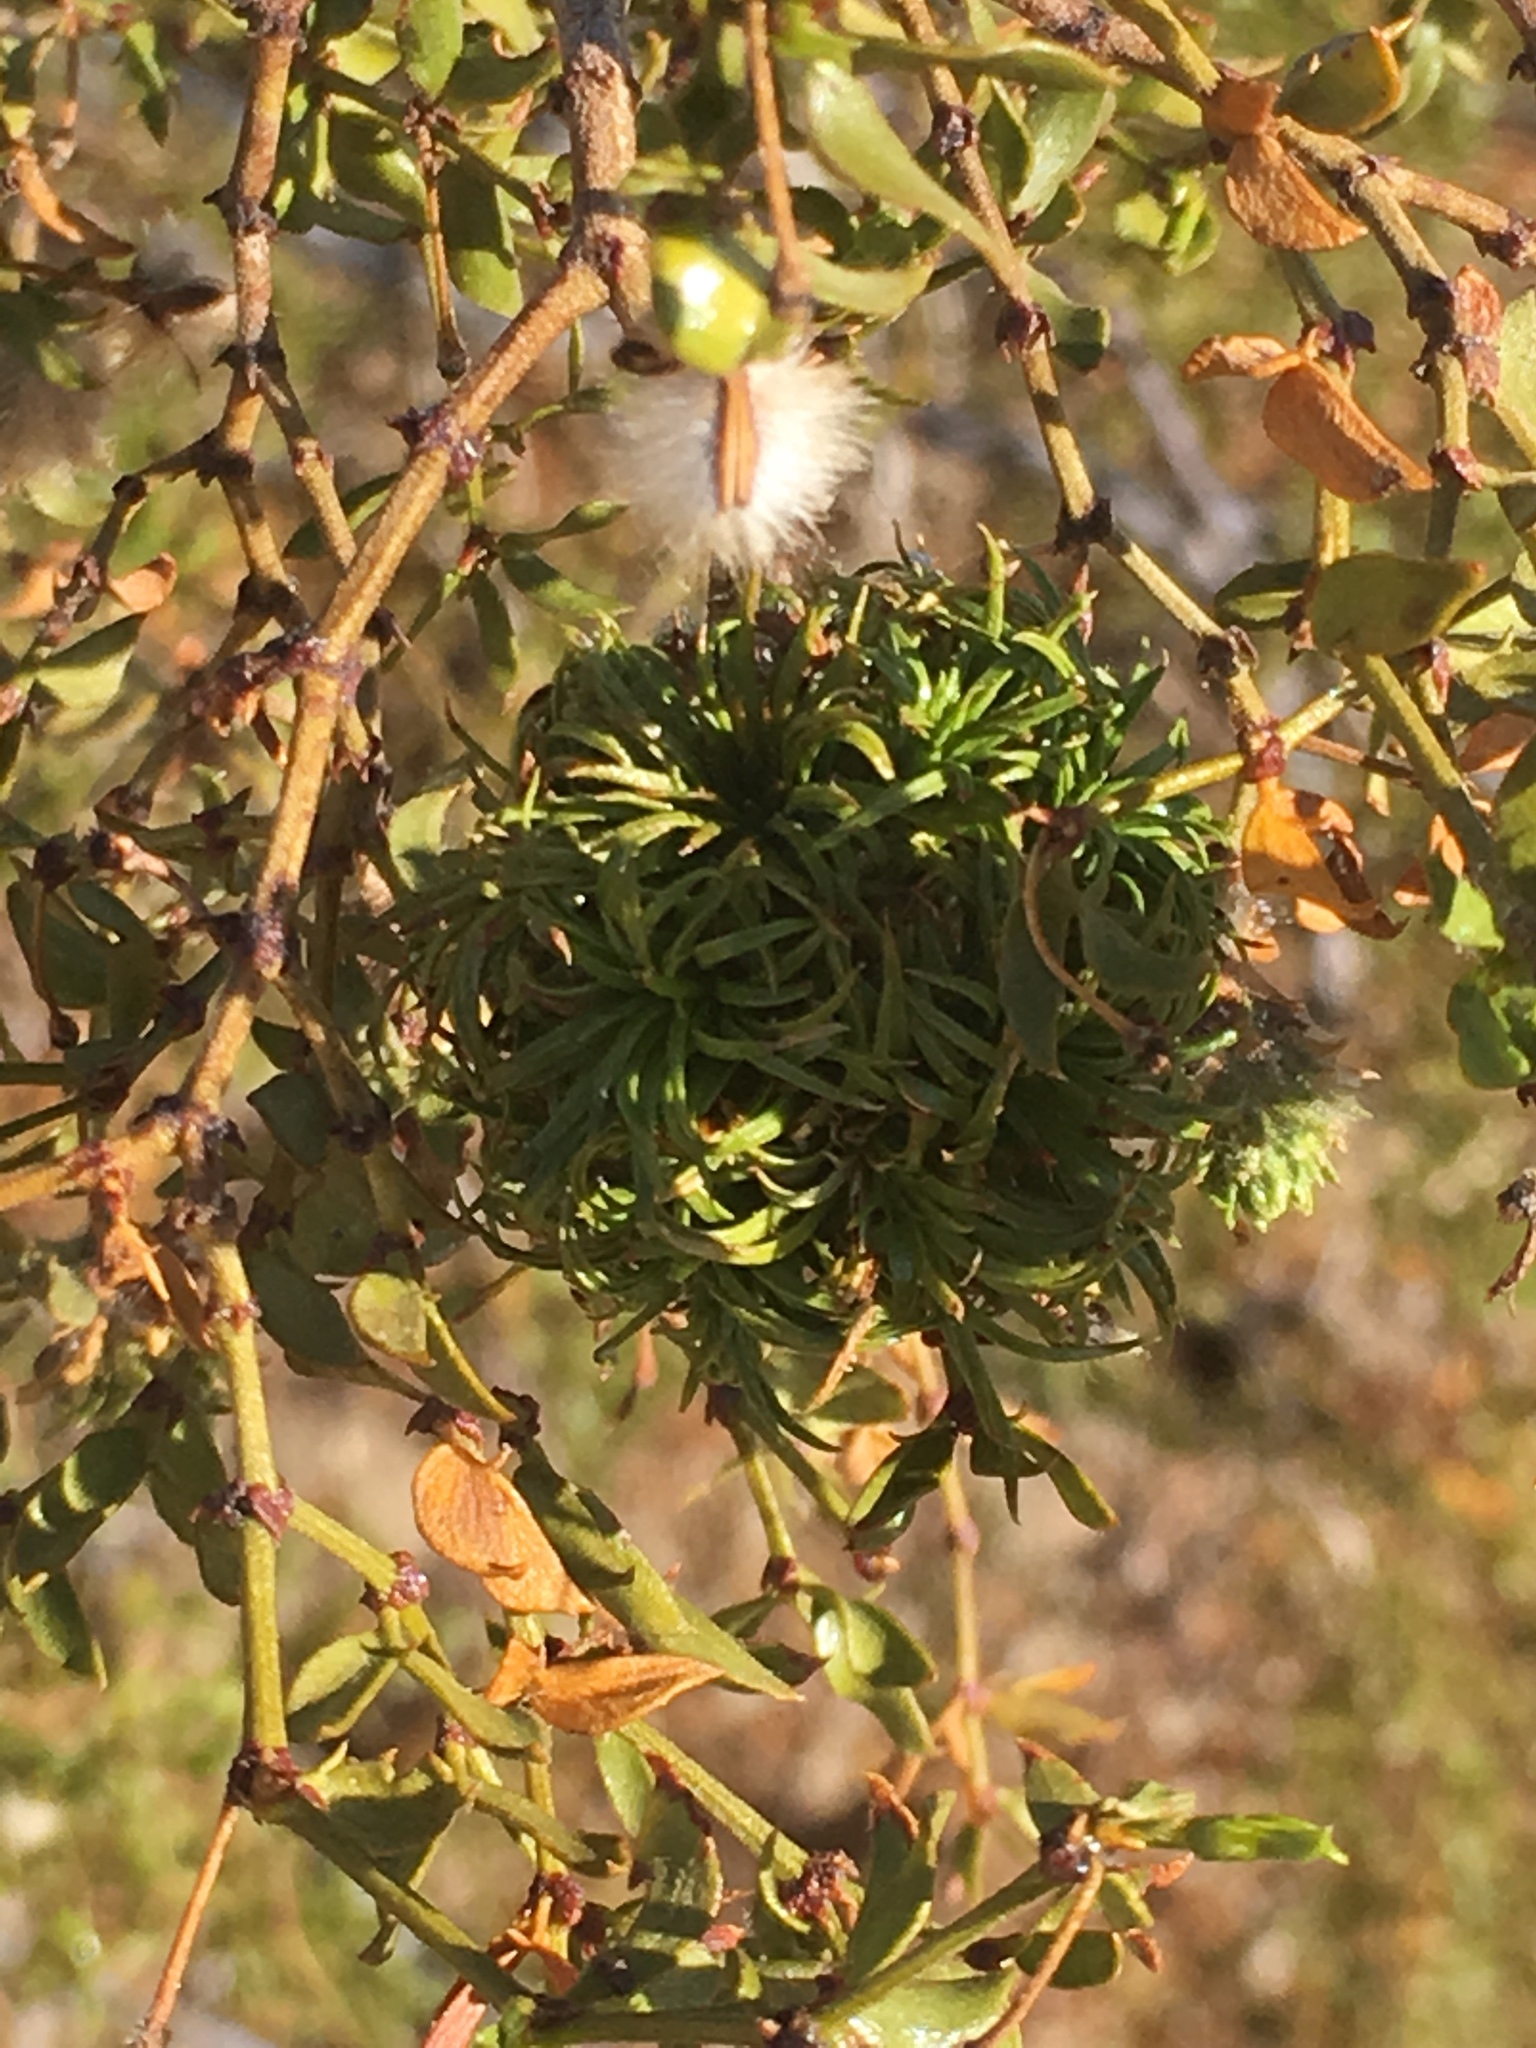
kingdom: Animalia
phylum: Arthropoda
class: Insecta
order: Diptera
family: Cecidomyiidae
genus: Asphondylia
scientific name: Asphondylia auripila
